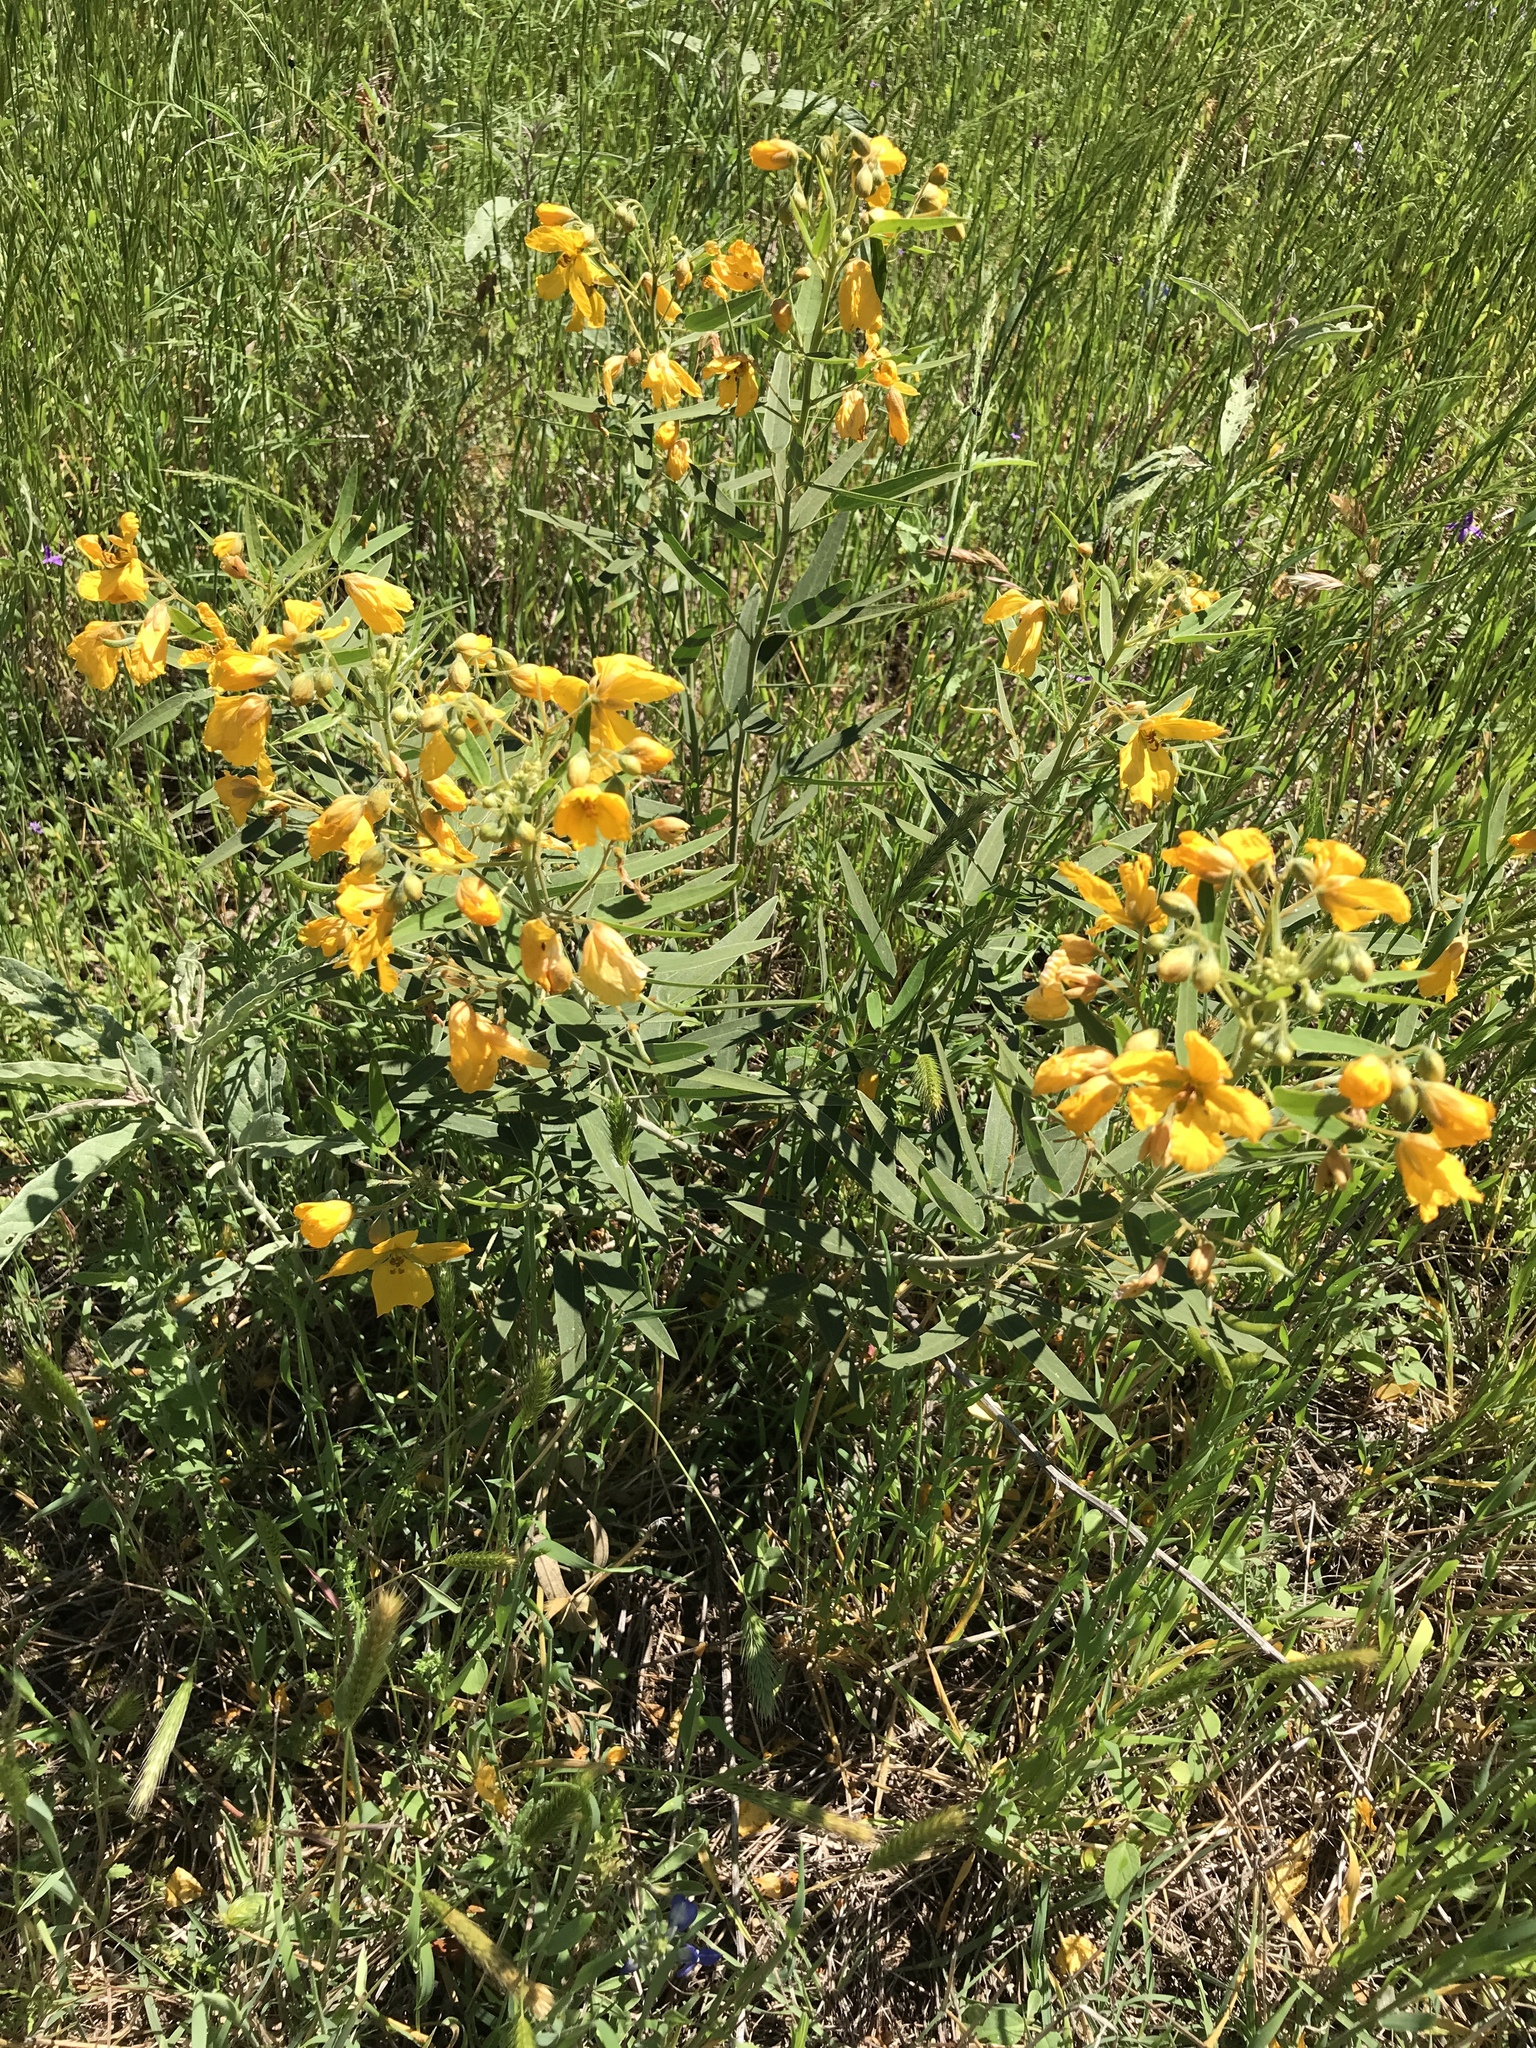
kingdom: Plantae
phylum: Tracheophyta
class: Magnoliopsida
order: Fabales
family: Fabaceae
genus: Senna
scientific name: Senna roemeriana
